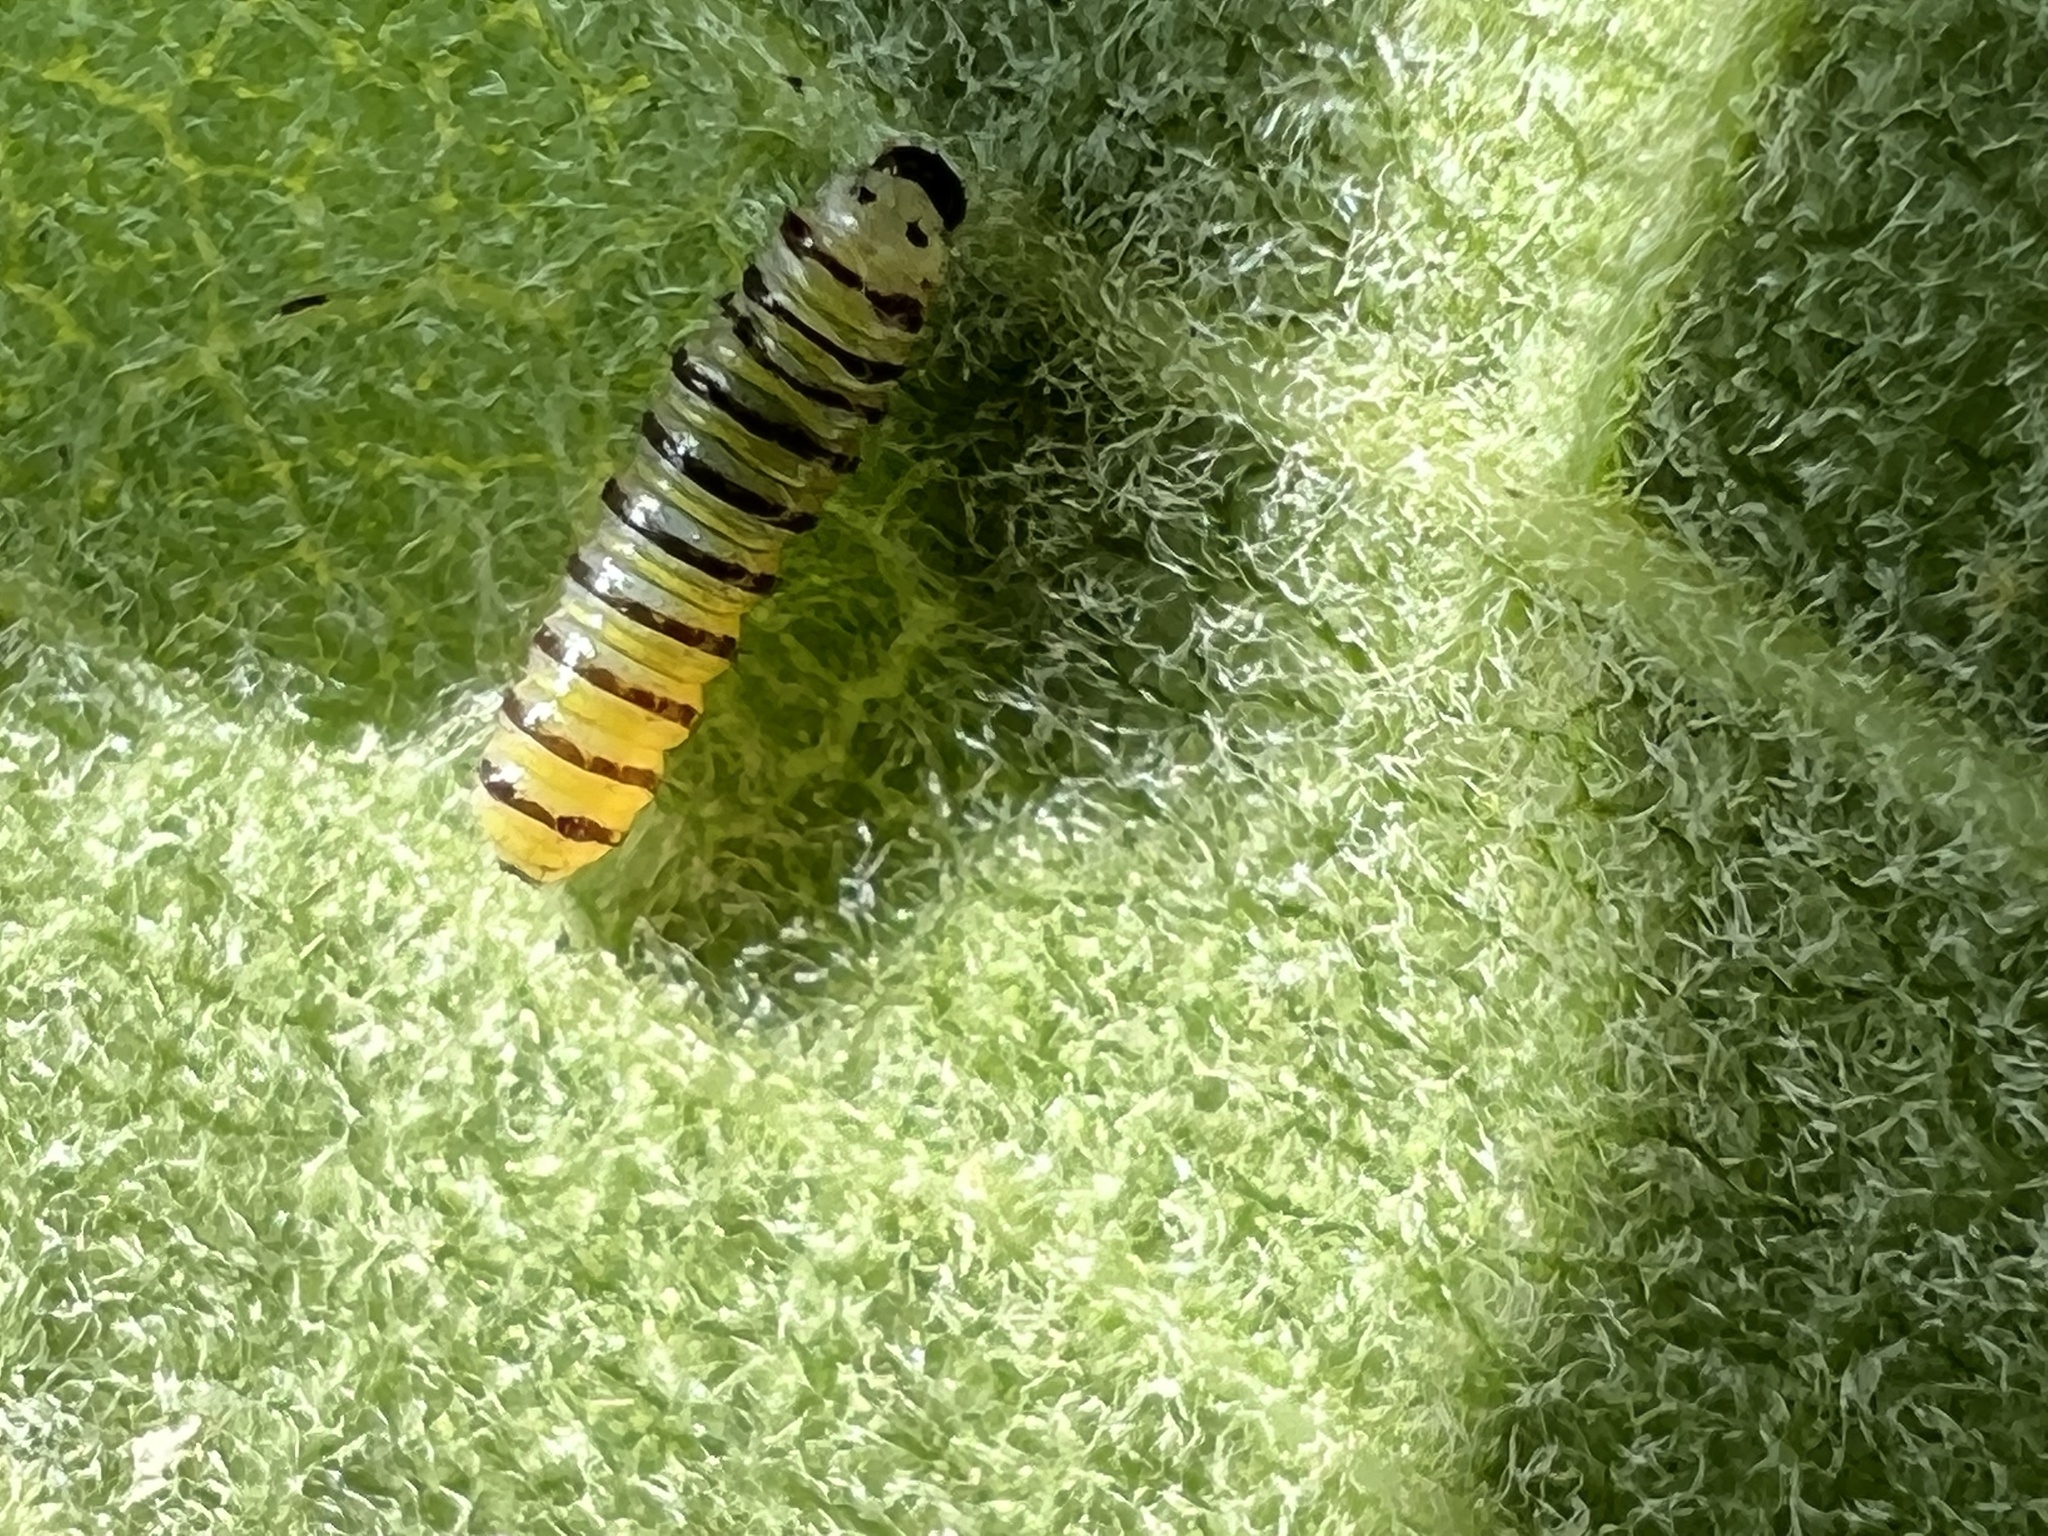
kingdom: Animalia
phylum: Arthropoda
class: Insecta
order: Lepidoptera
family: Nymphalidae
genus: Danaus
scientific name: Danaus plexippus
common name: Monarch
